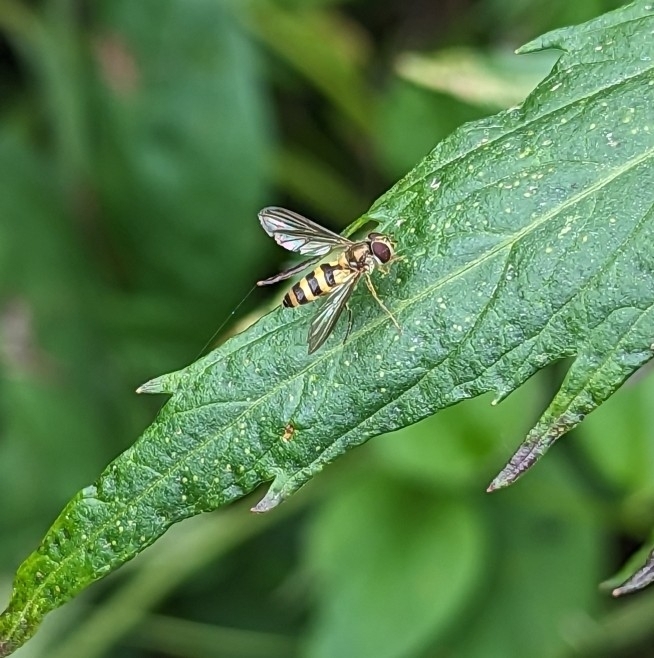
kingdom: Animalia
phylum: Arthropoda
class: Insecta
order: Diptera
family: Syrphidae
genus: Meliscaeva
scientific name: Meliscaeva cinctella
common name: American thintail fly
